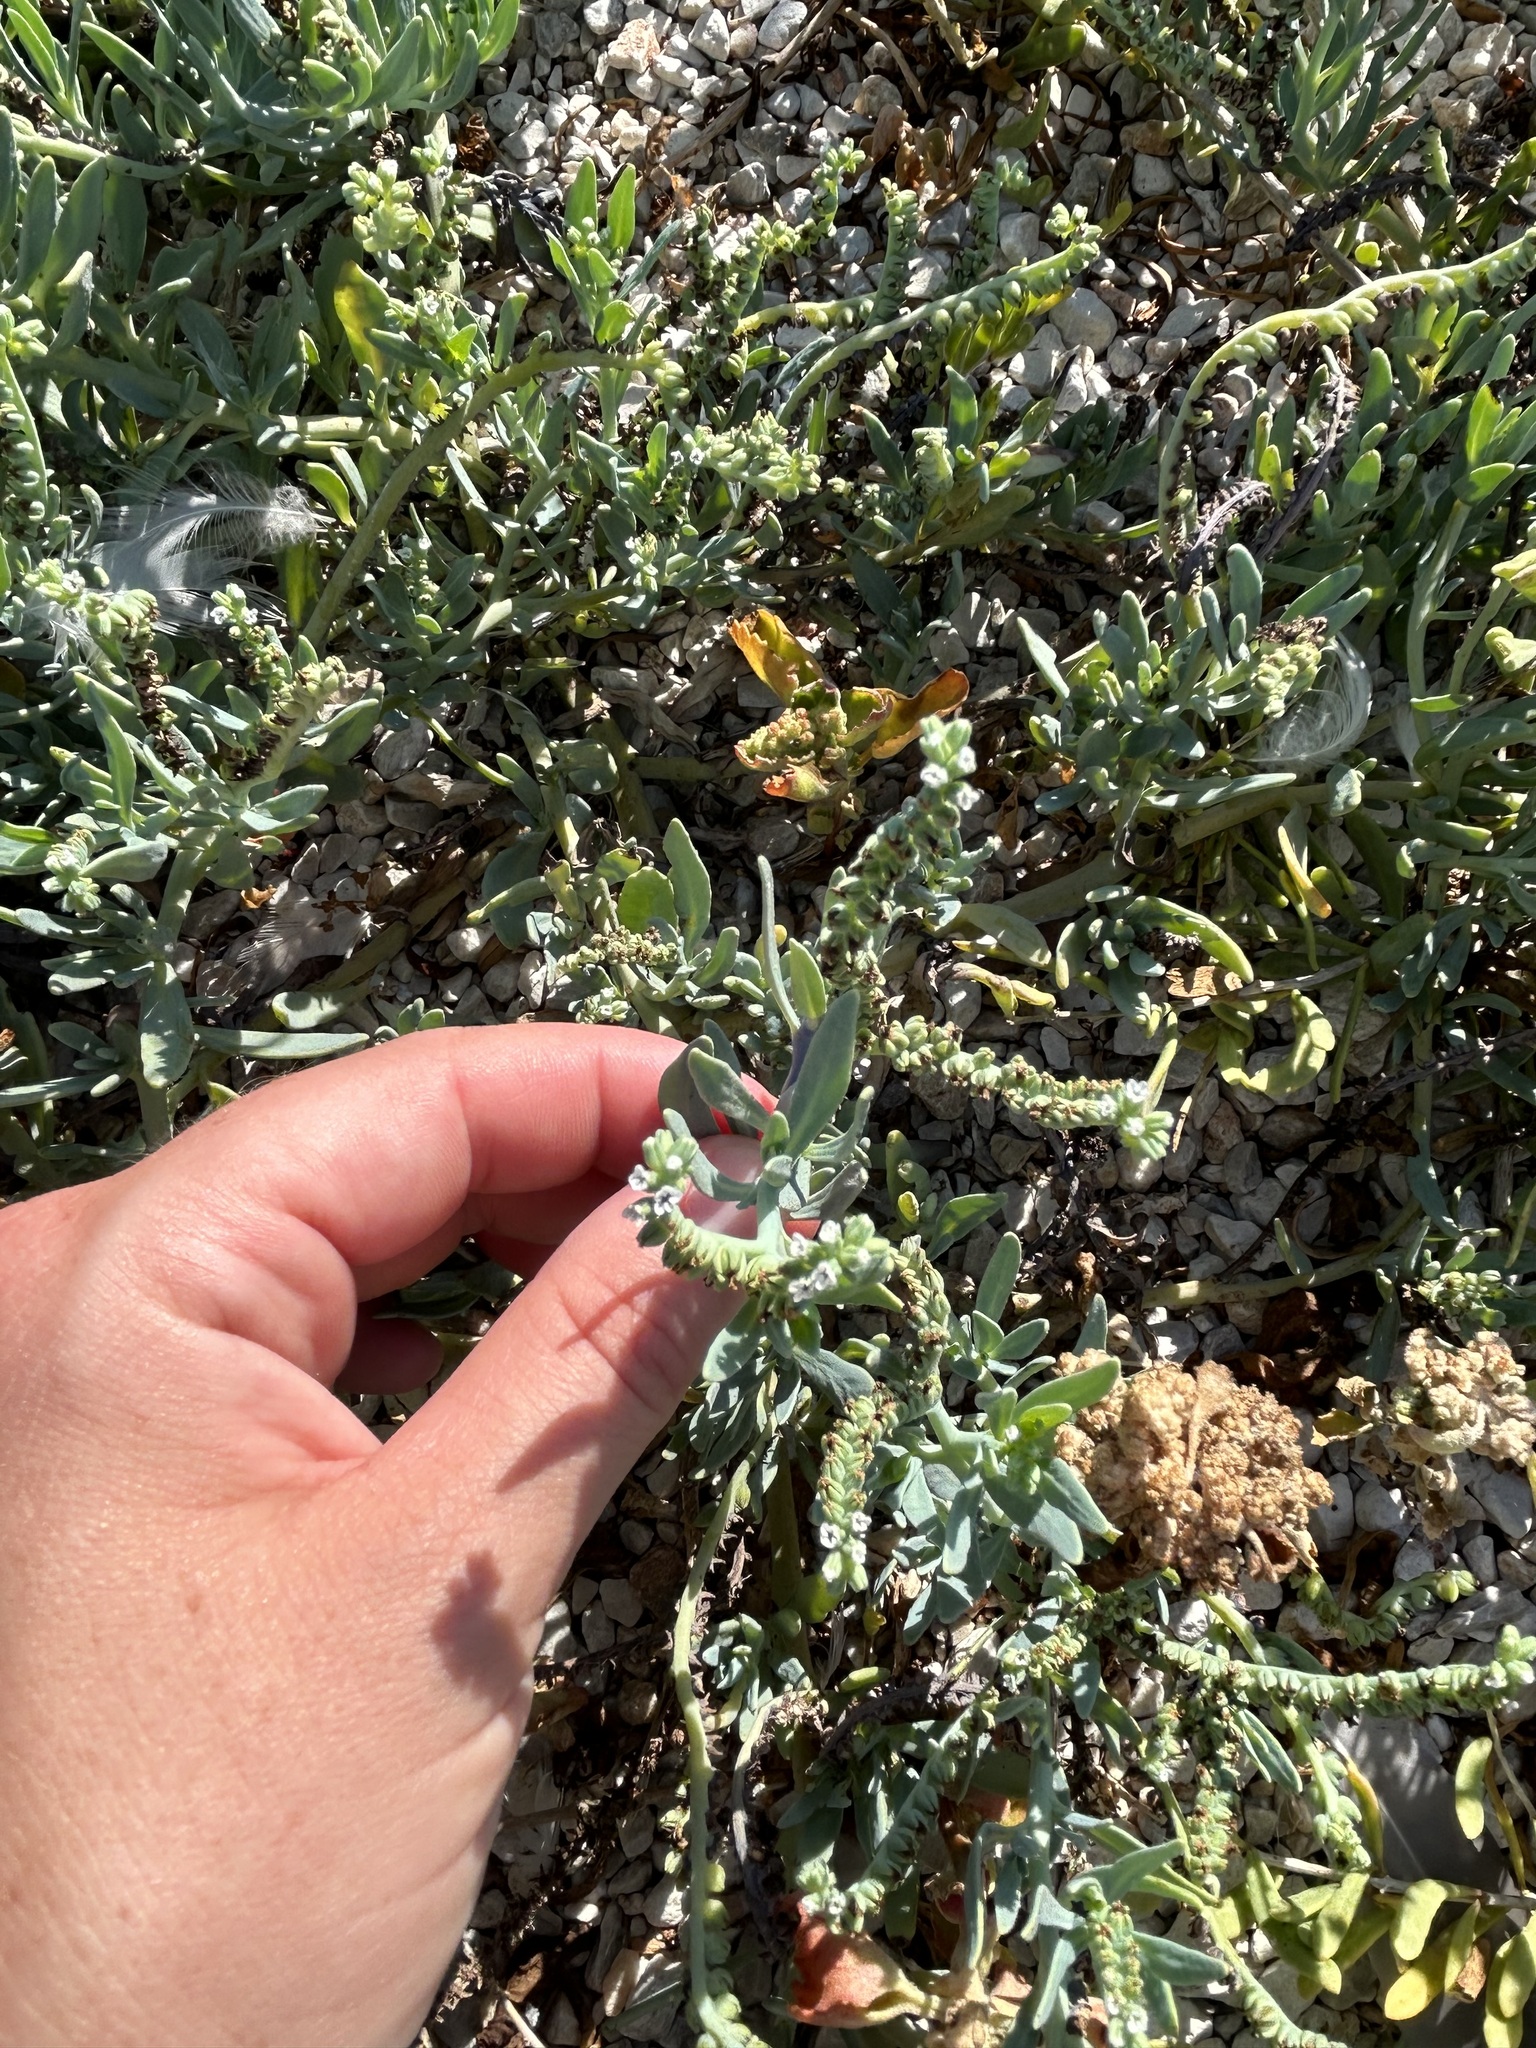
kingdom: Plantae
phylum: Tracheophyta
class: Magnoliopsida
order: Boraginales
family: Heliotropiaceae
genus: Heliotropium
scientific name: Heliotropium curassavicum
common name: Seaside heliotrope
